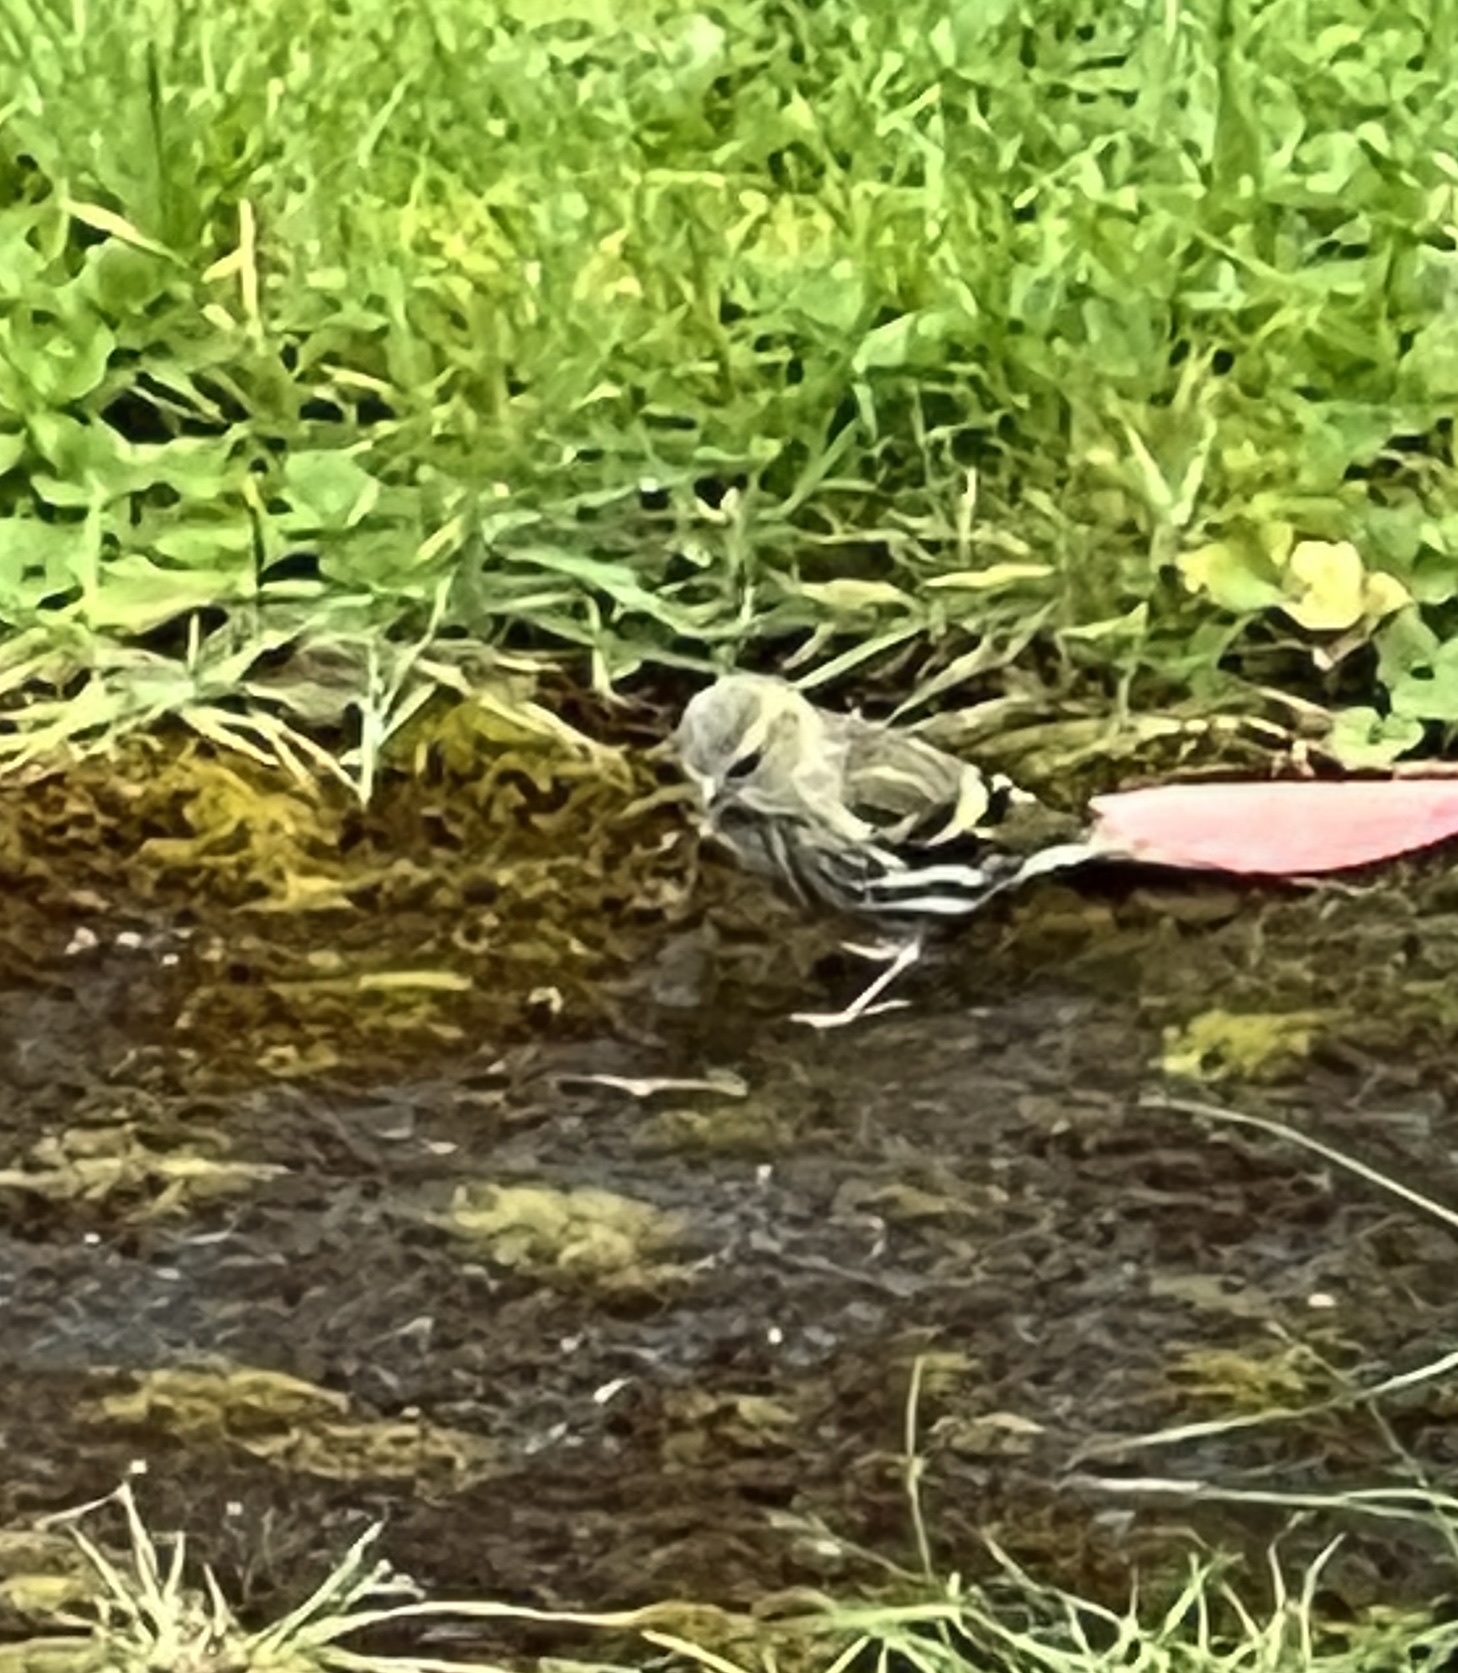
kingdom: Animalia
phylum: Chordata
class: Aves
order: Passeriformes
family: Fringillidae
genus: Spinus
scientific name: Spinus spinus
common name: Eurasian siskin
